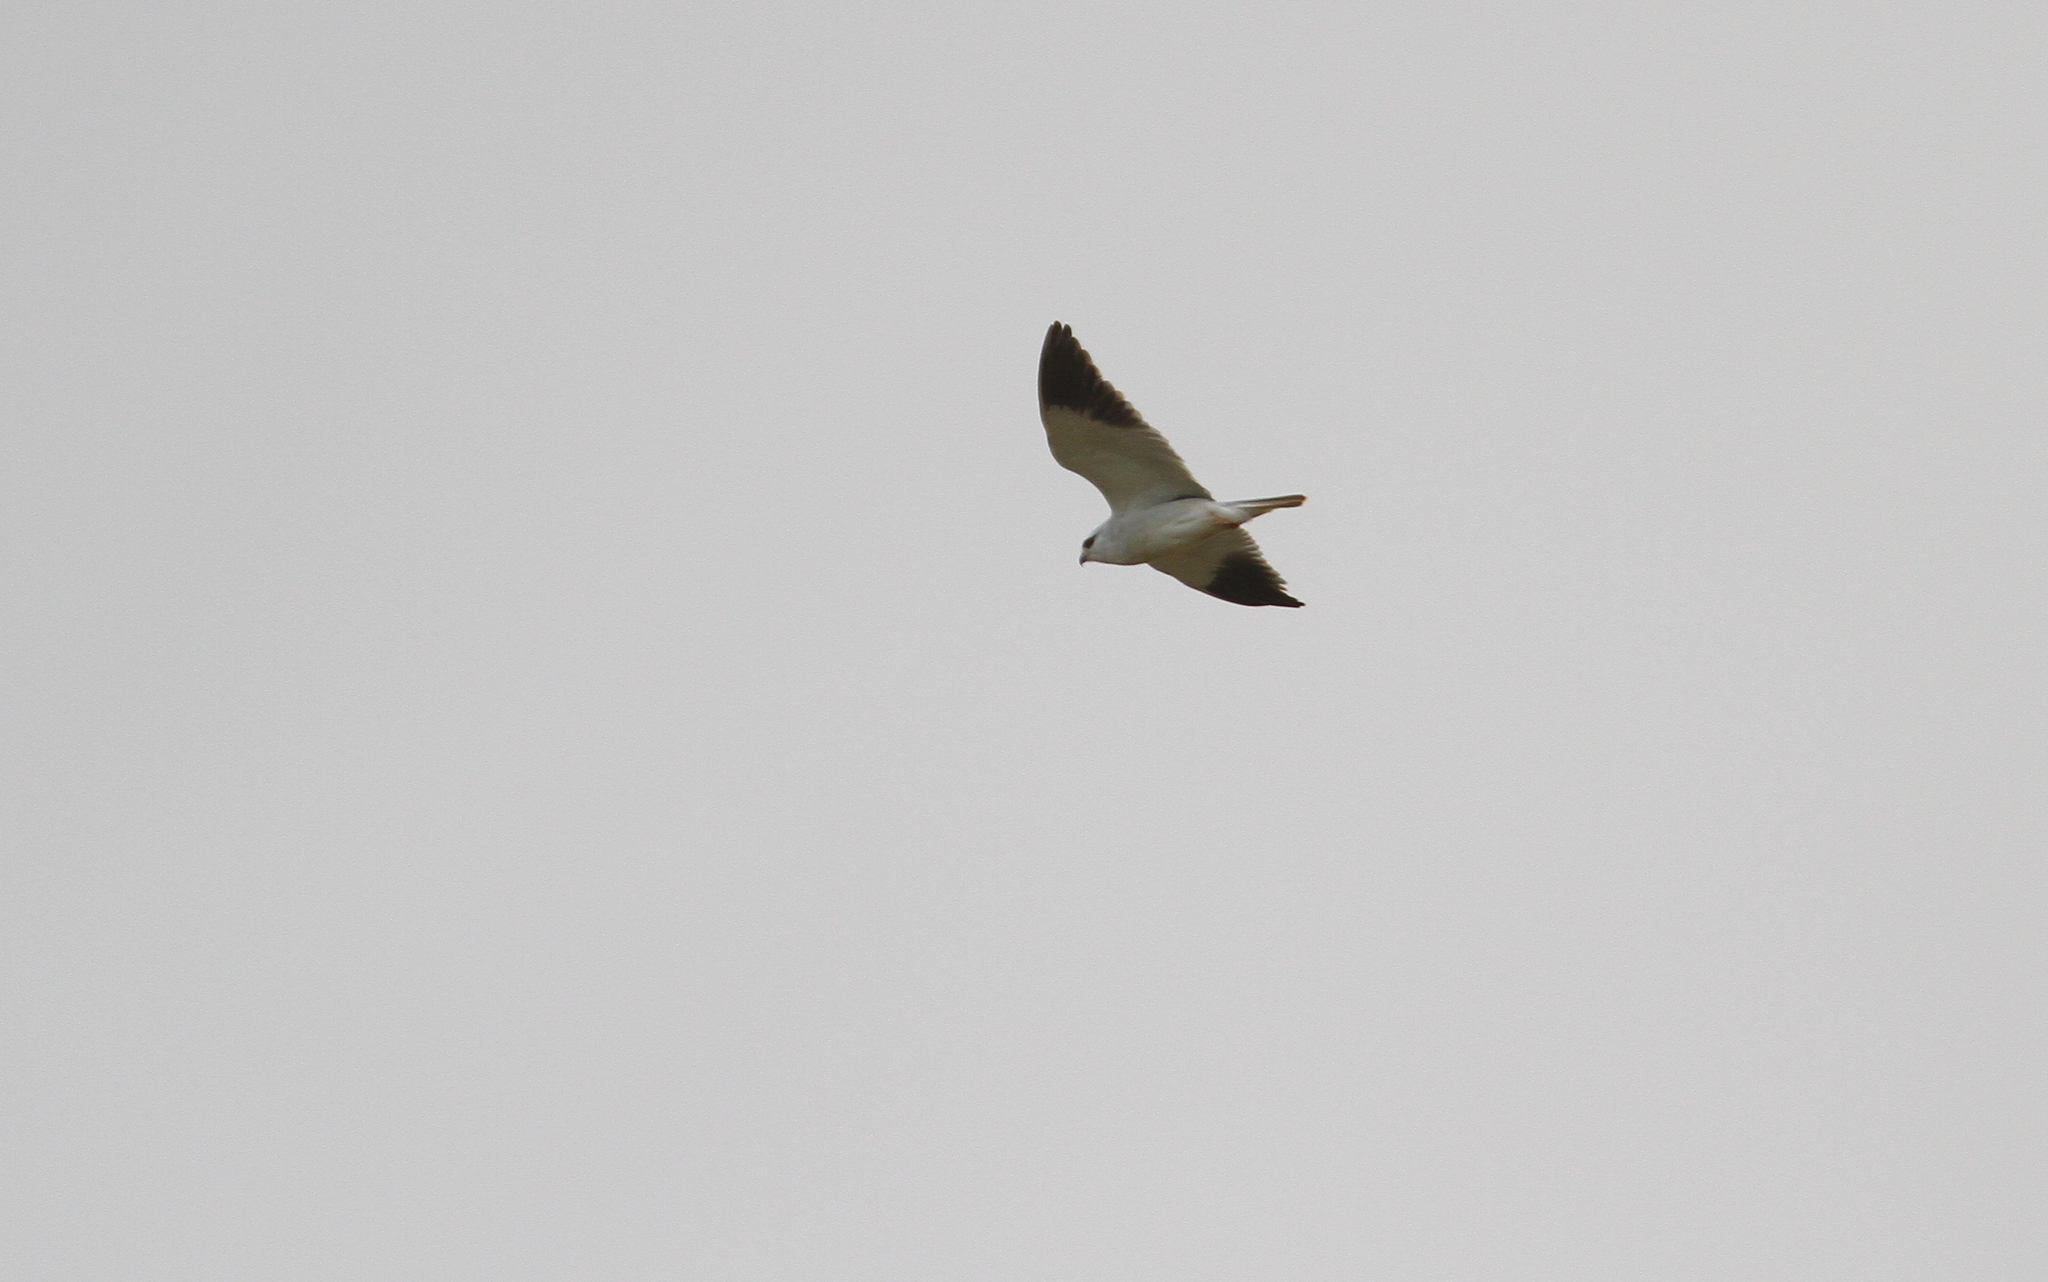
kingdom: Animalia
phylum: Chordata
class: Aves
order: Accipitriformes
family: Accipitridae
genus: Elanus
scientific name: Elanus caeruleus
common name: Black-winged kite
